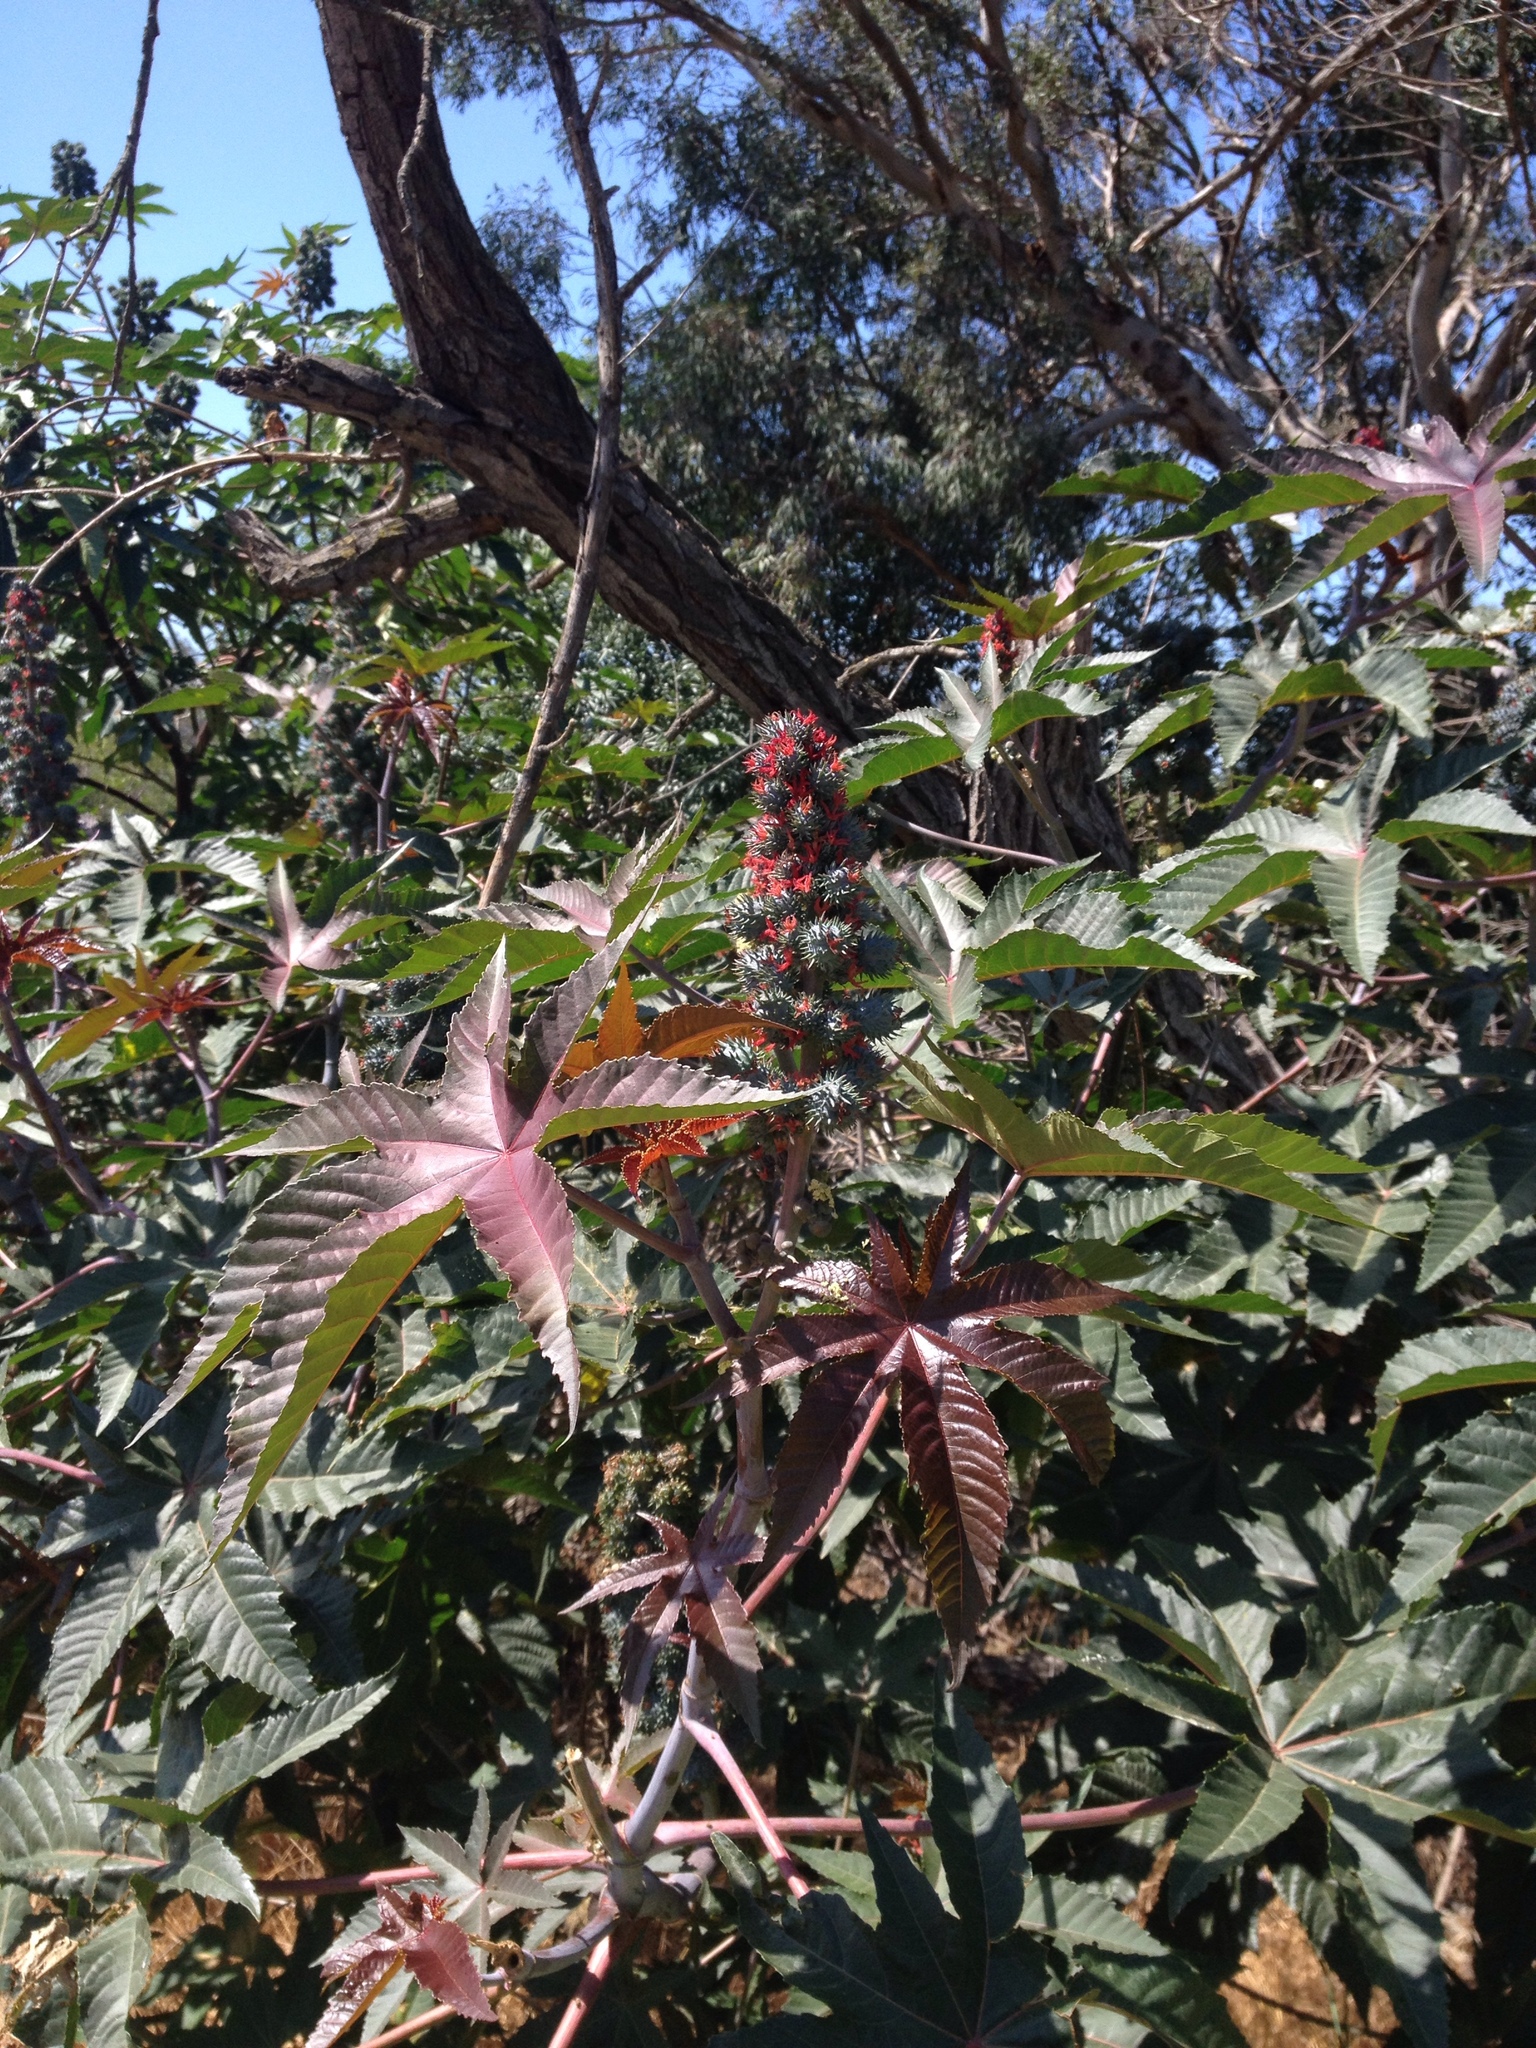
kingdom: Plantae
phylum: Tracheophyta
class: Magnoliopsida
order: Malpighiales
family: Euphorbiaceae
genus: Ricinus
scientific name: Ricinus communis
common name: Castor-oil-plant
